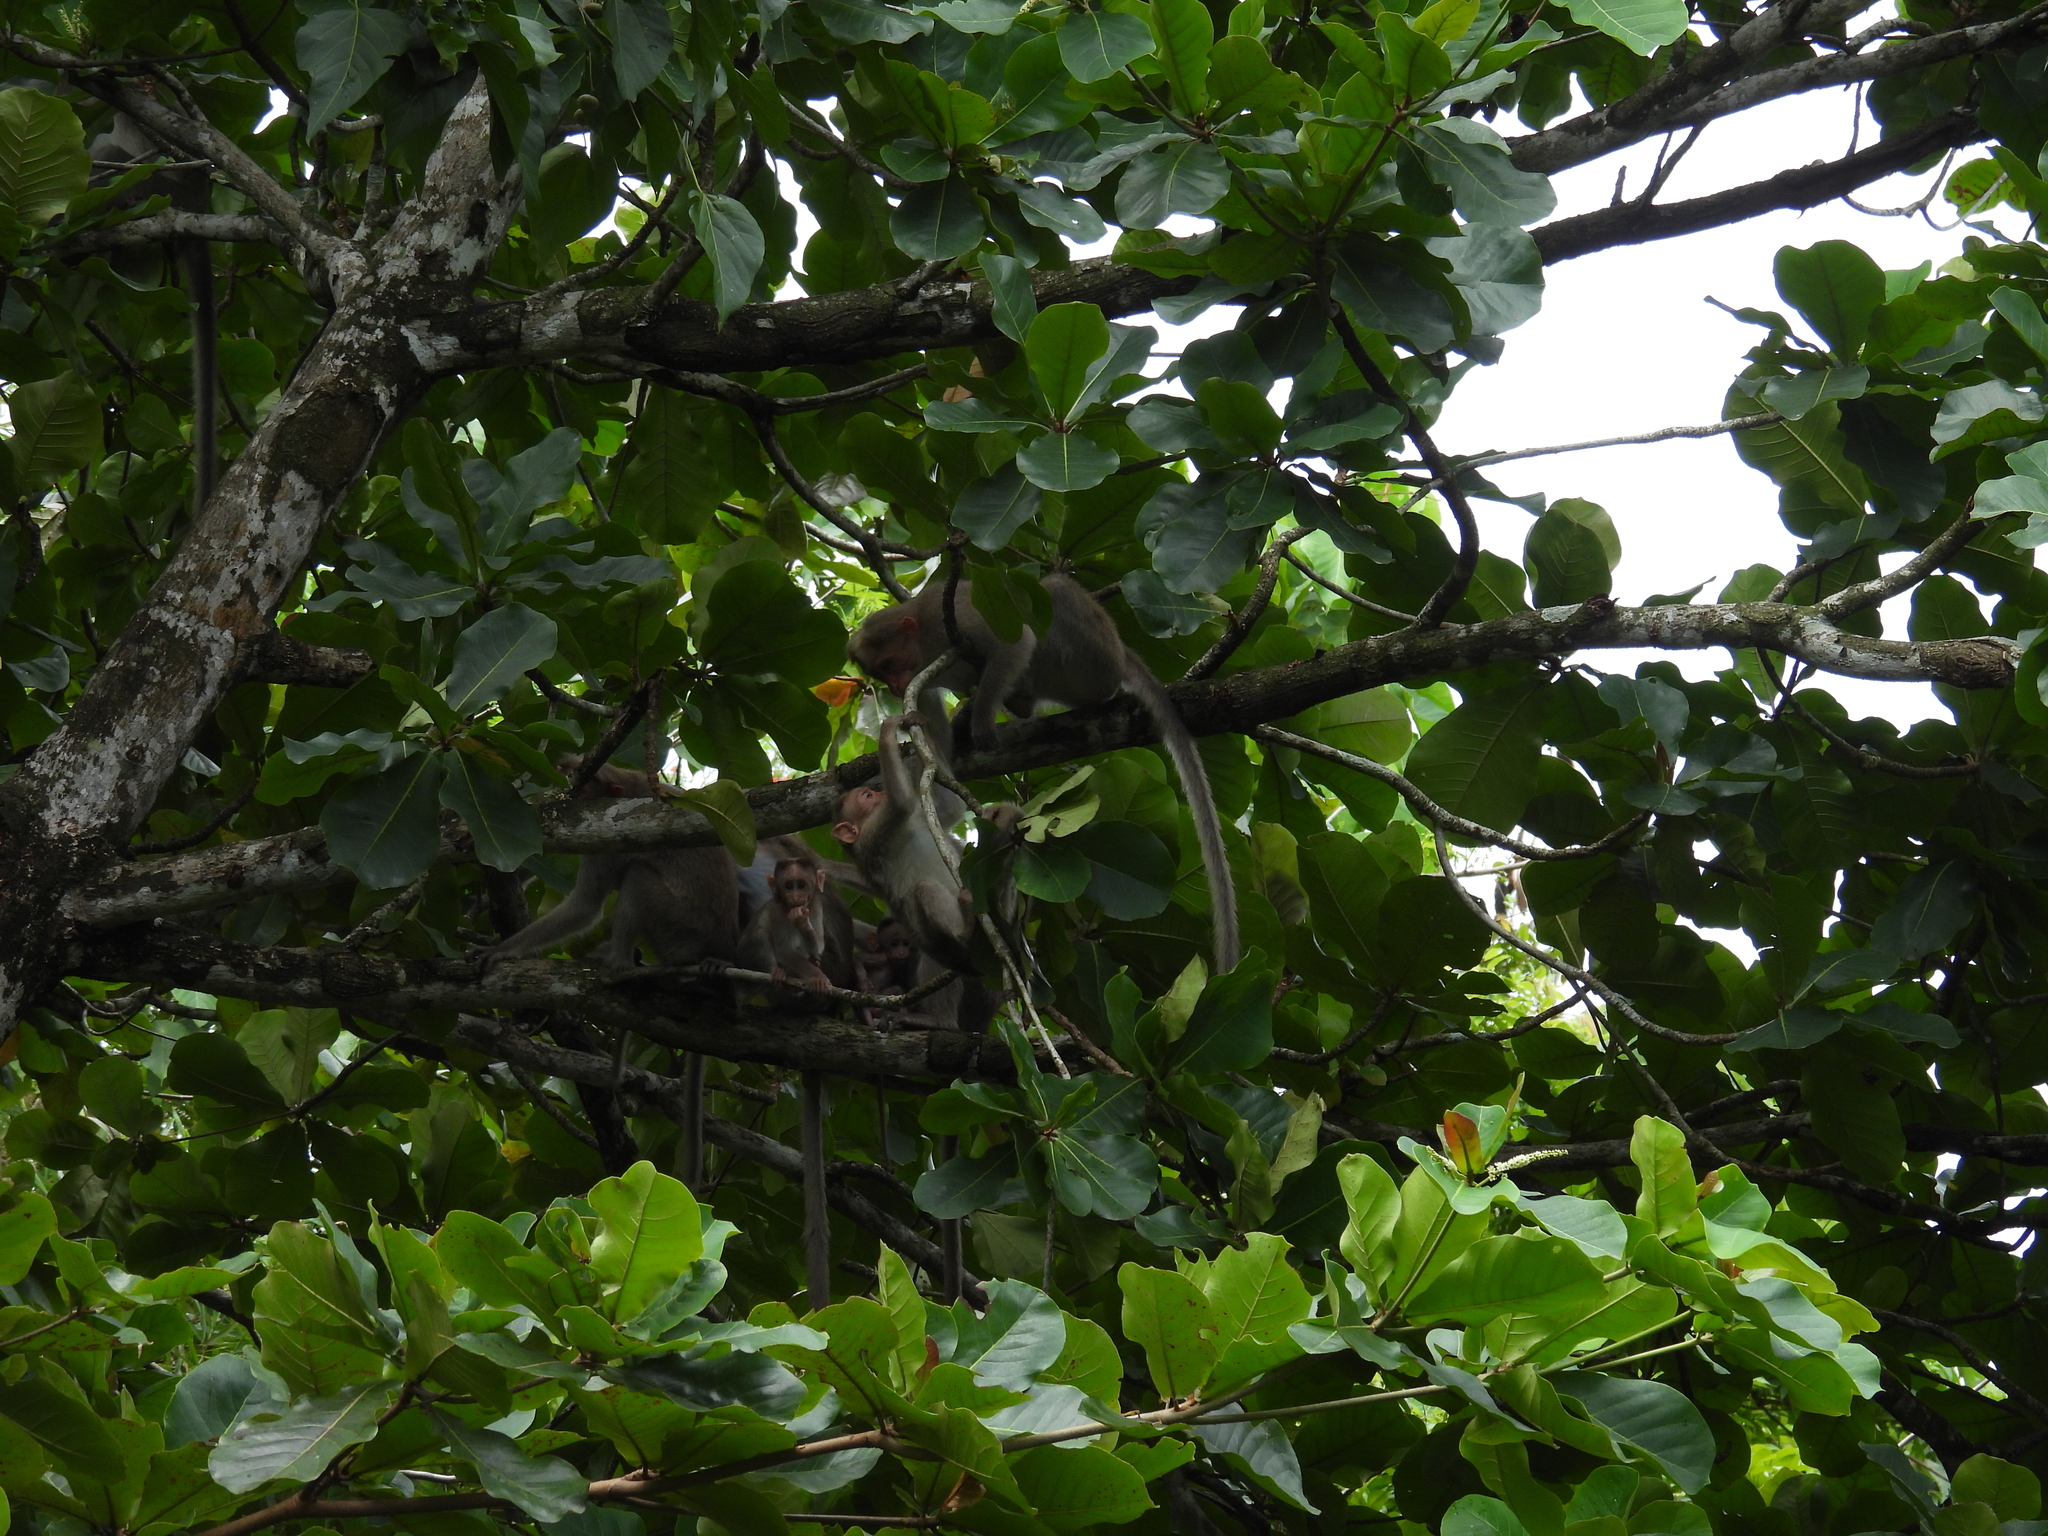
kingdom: Animalia
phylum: Chordata
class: Mammalia
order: Primates
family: Cercopithecidae
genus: Macaca
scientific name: Macaca radiata
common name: Bonnet macaque
